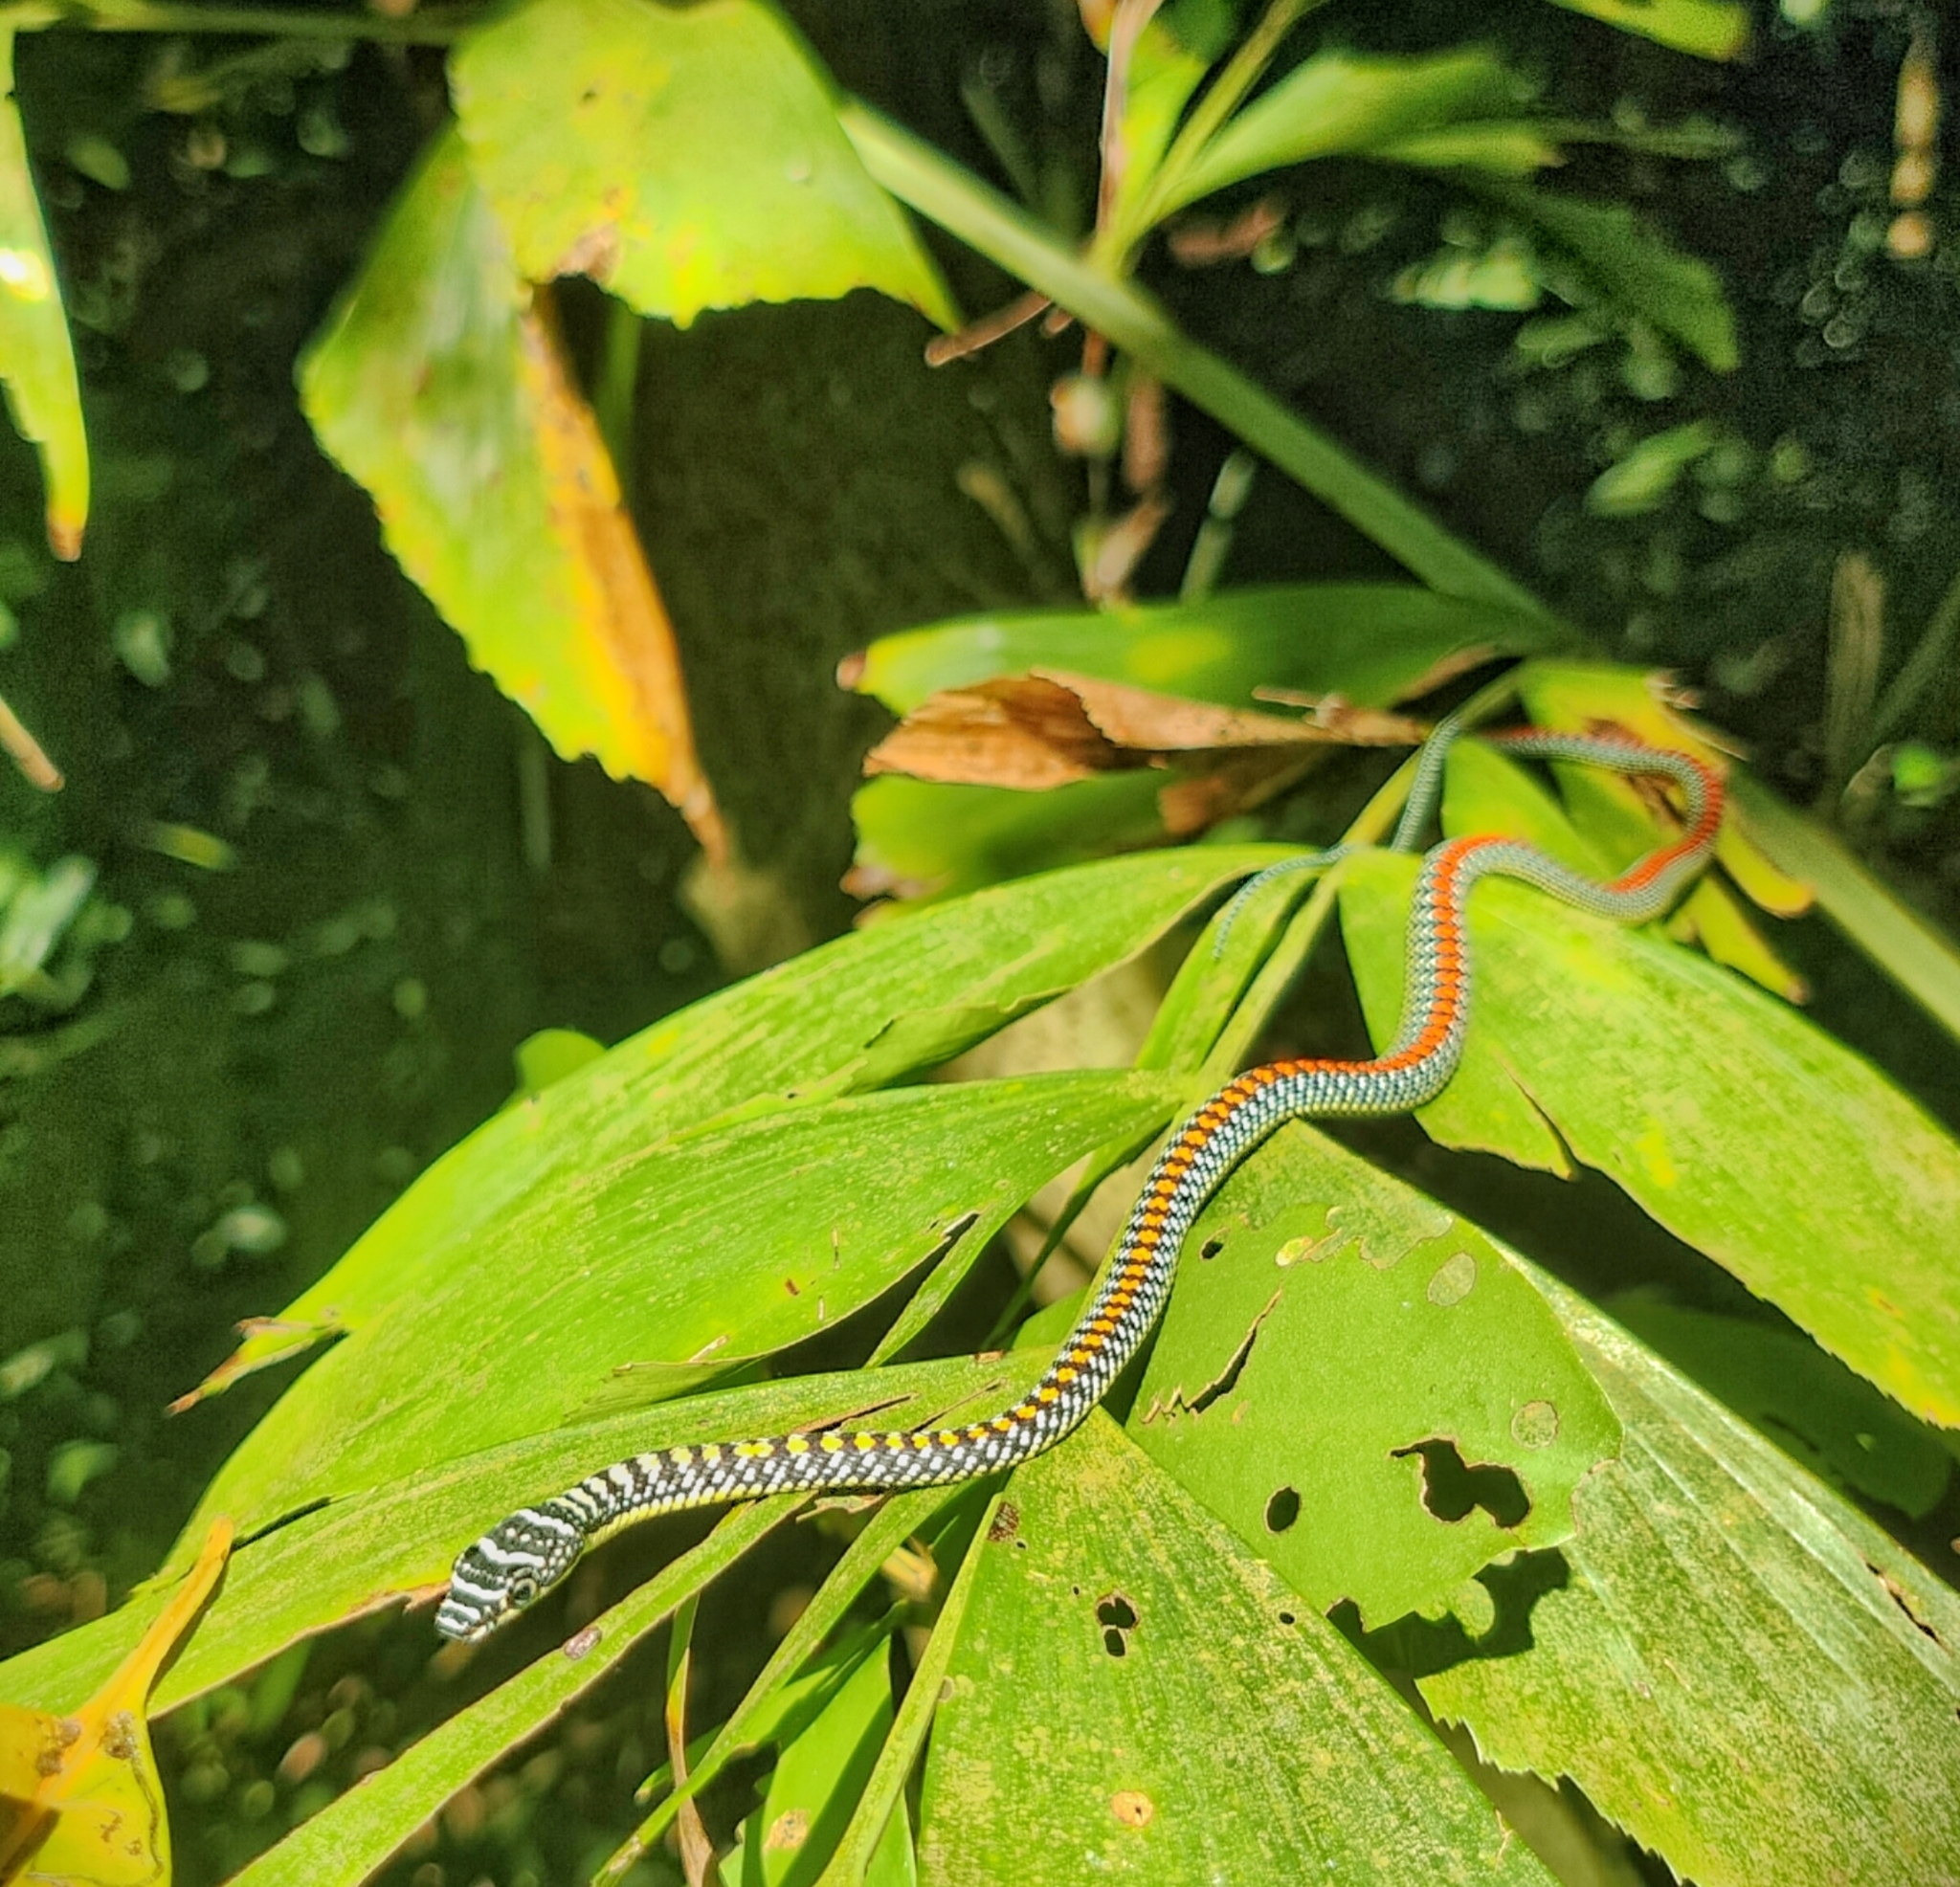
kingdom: Animalia
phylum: Chordata
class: Squamata
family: Colubridae
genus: Chrysopelea
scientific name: Chrysopelea paradisi
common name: Paradise tree snake
